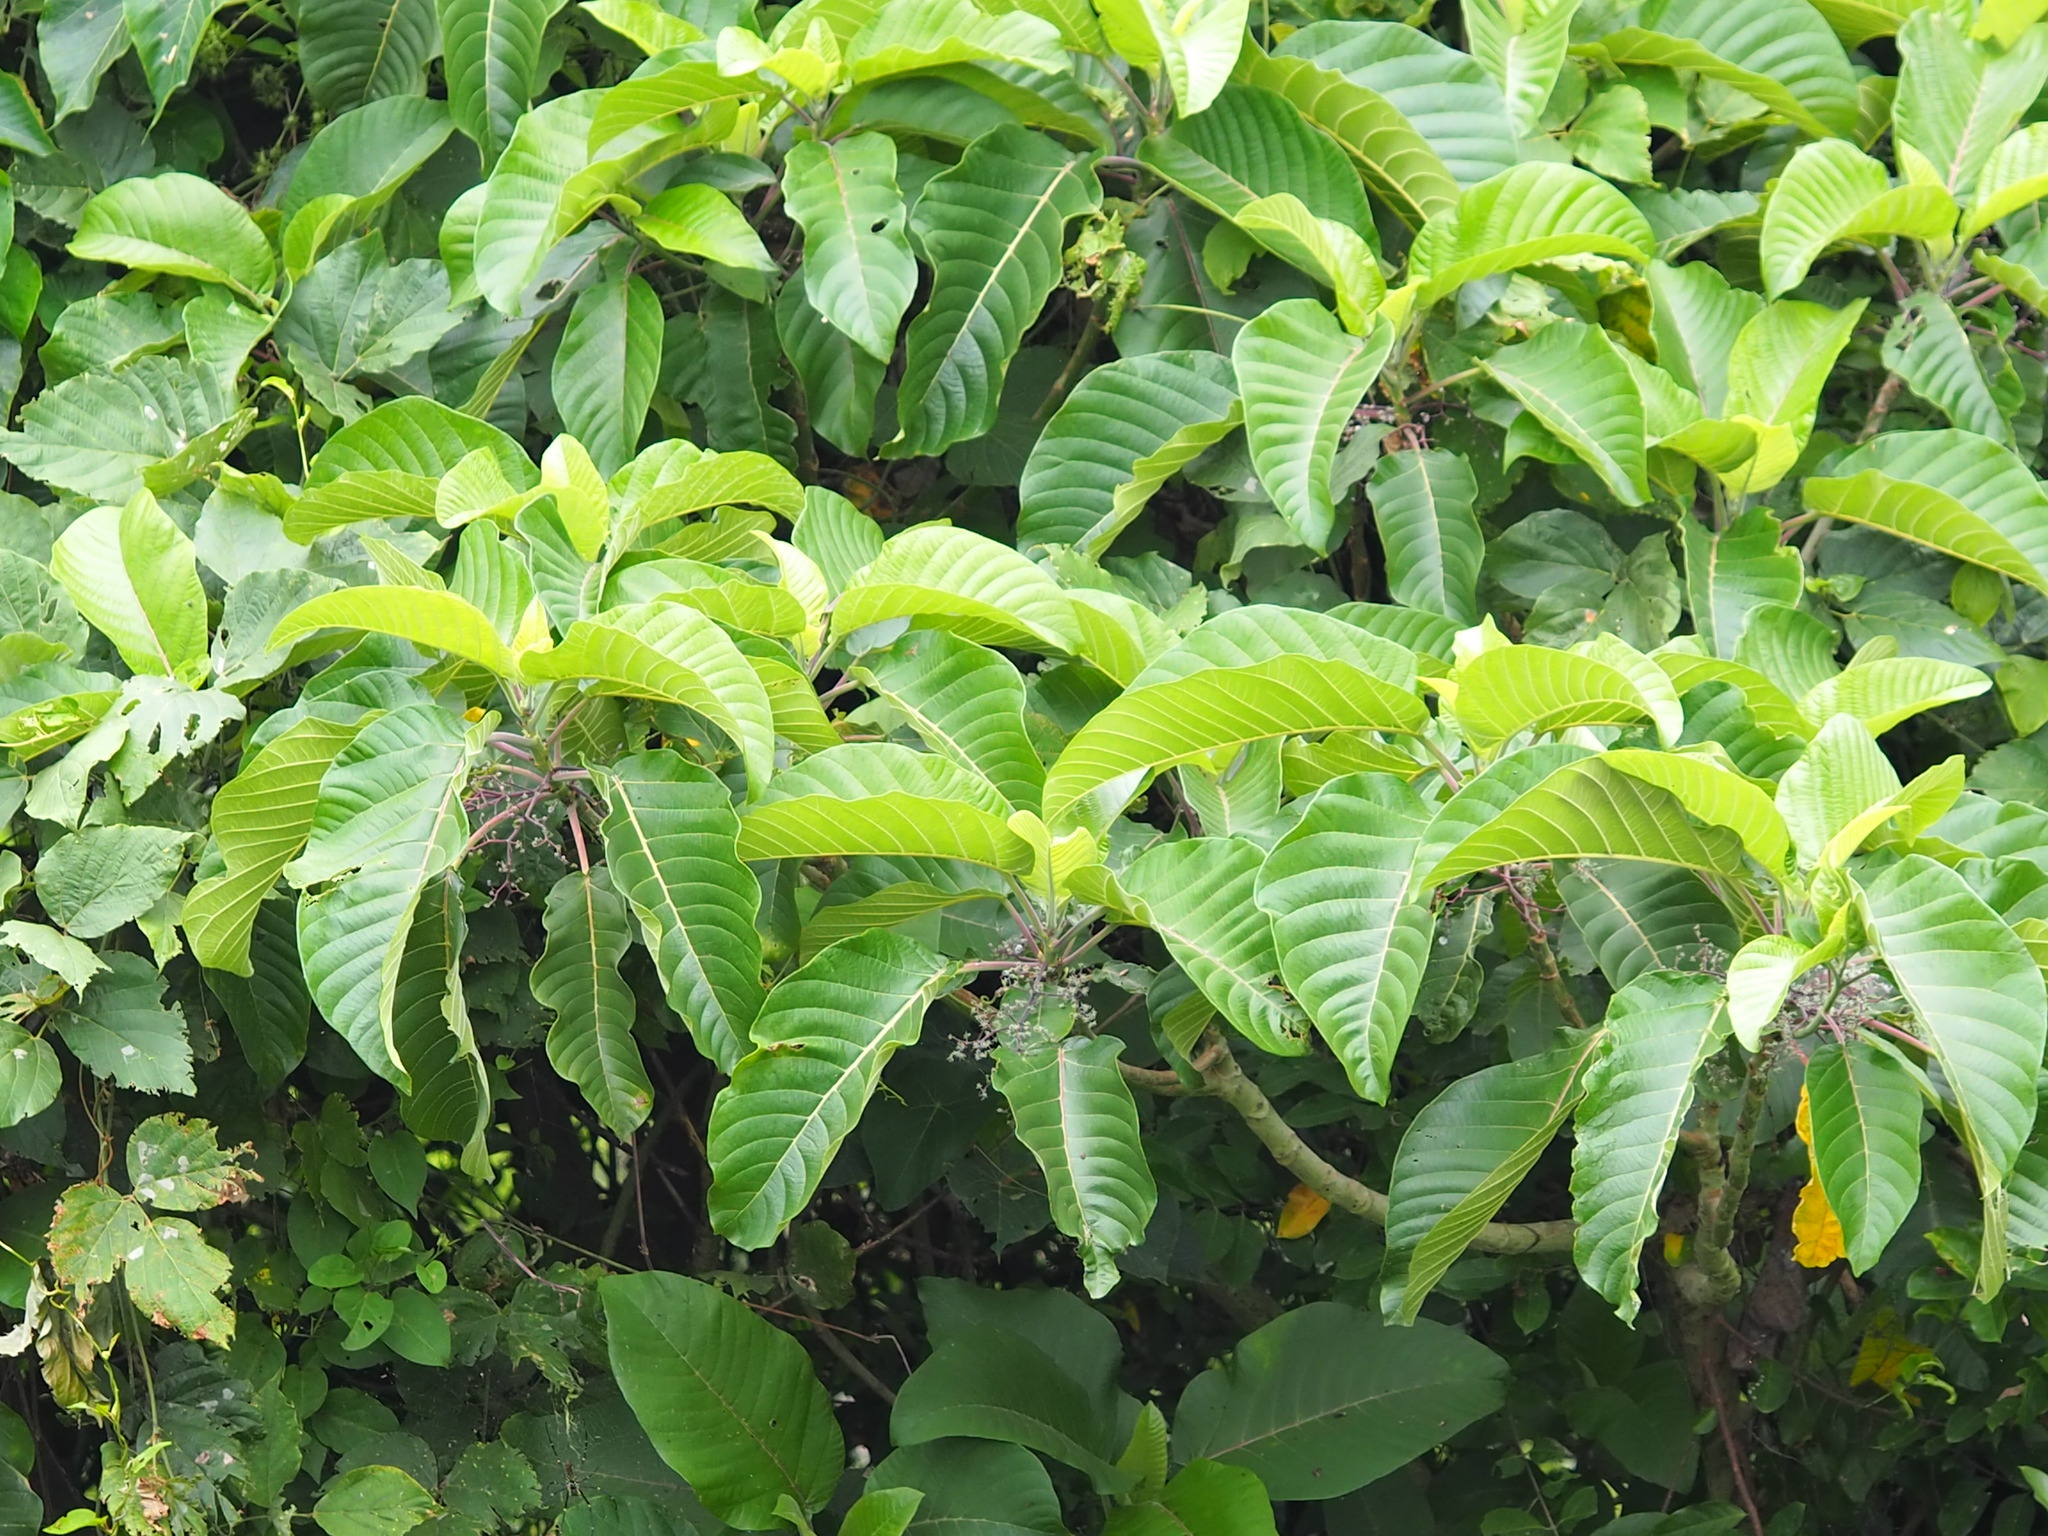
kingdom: Plantae
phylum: Tracheophyta
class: Magnoliopsida
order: Rosales
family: Urticaceae
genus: Dendrocnide
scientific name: Dendrocnide meyeniana
